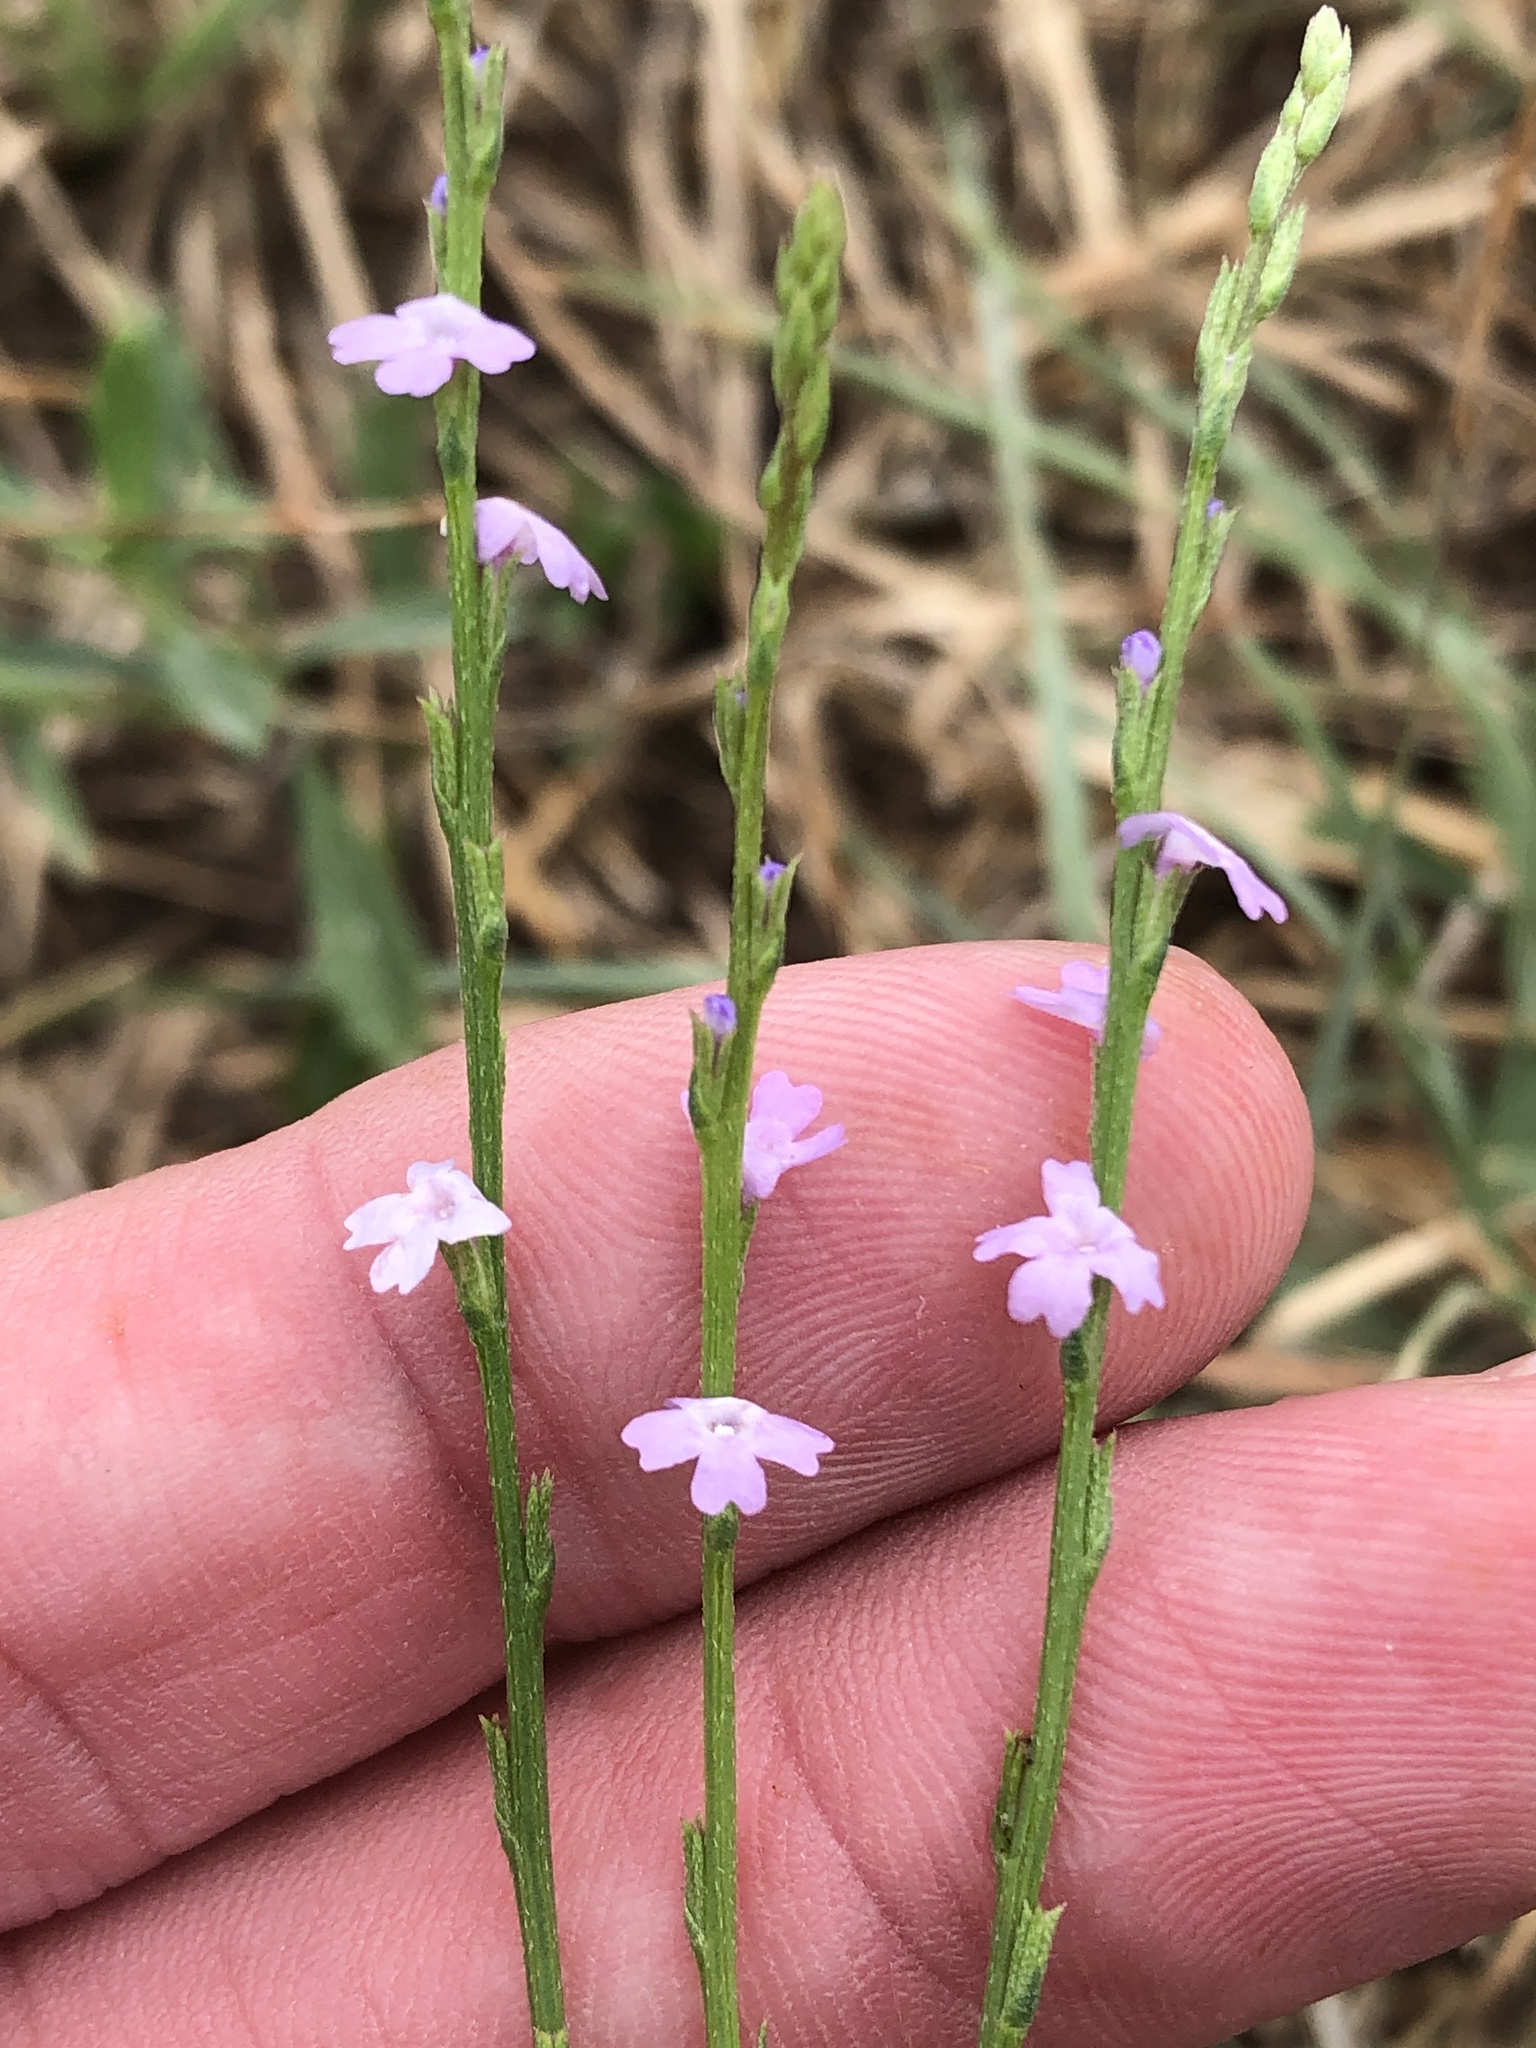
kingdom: Plantae
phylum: Tracheophyta
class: Magnoliopsida
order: Lamiales
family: Verbenaceae
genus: Verbena
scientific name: Verbena halei
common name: Texas vervain
